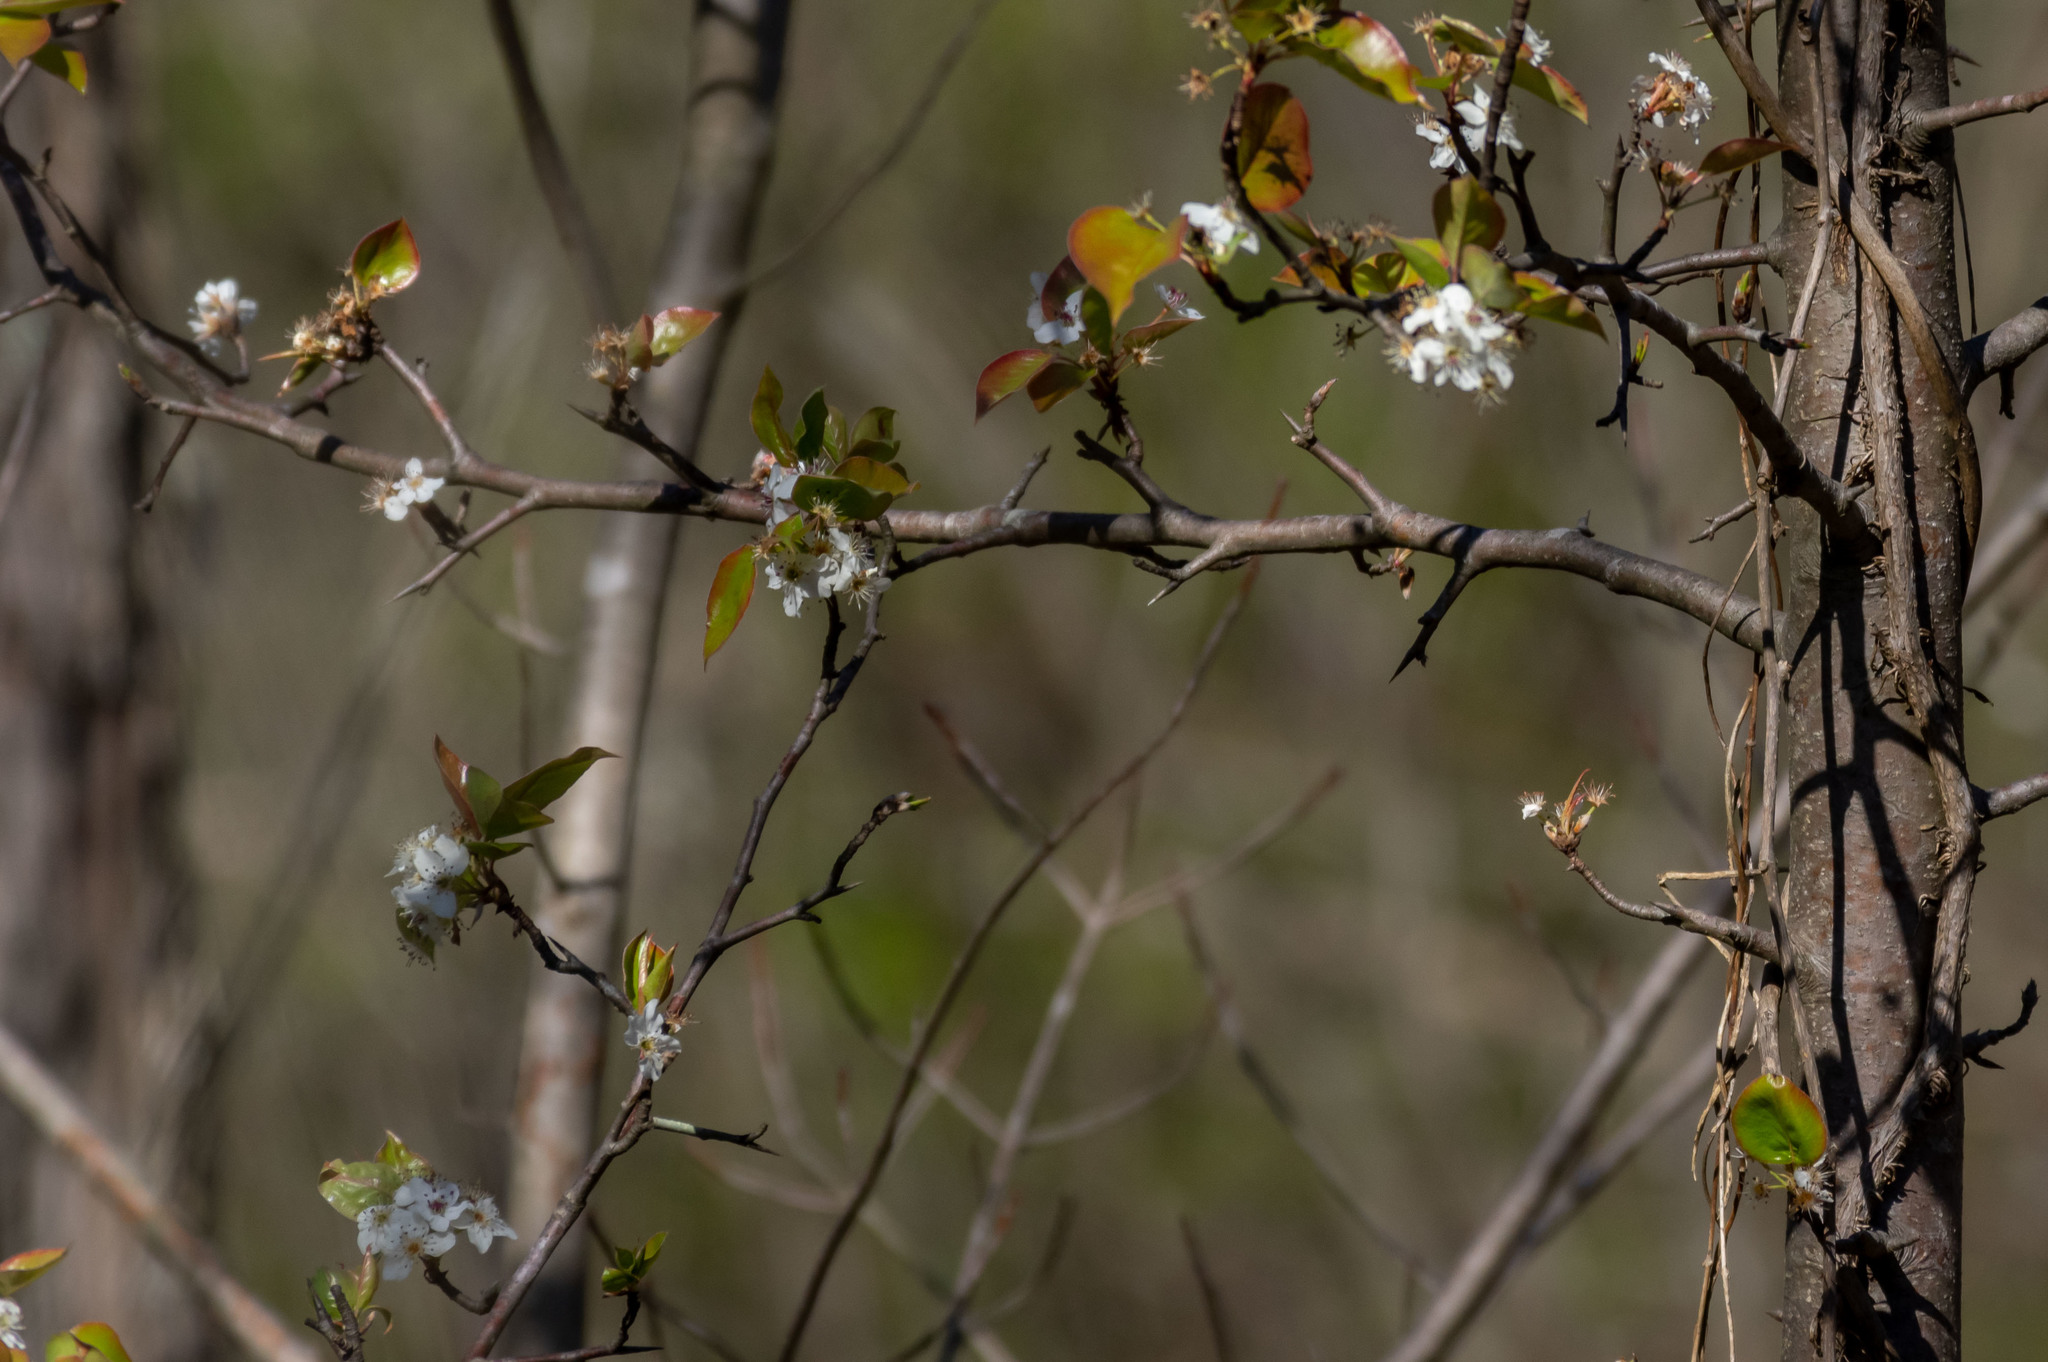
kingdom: Plantae
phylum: Tracheophyta
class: Magnoliopsida
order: Rosales
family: Rosaceae
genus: Pyrus
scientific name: Pyrus calleryana
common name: Callery pear
